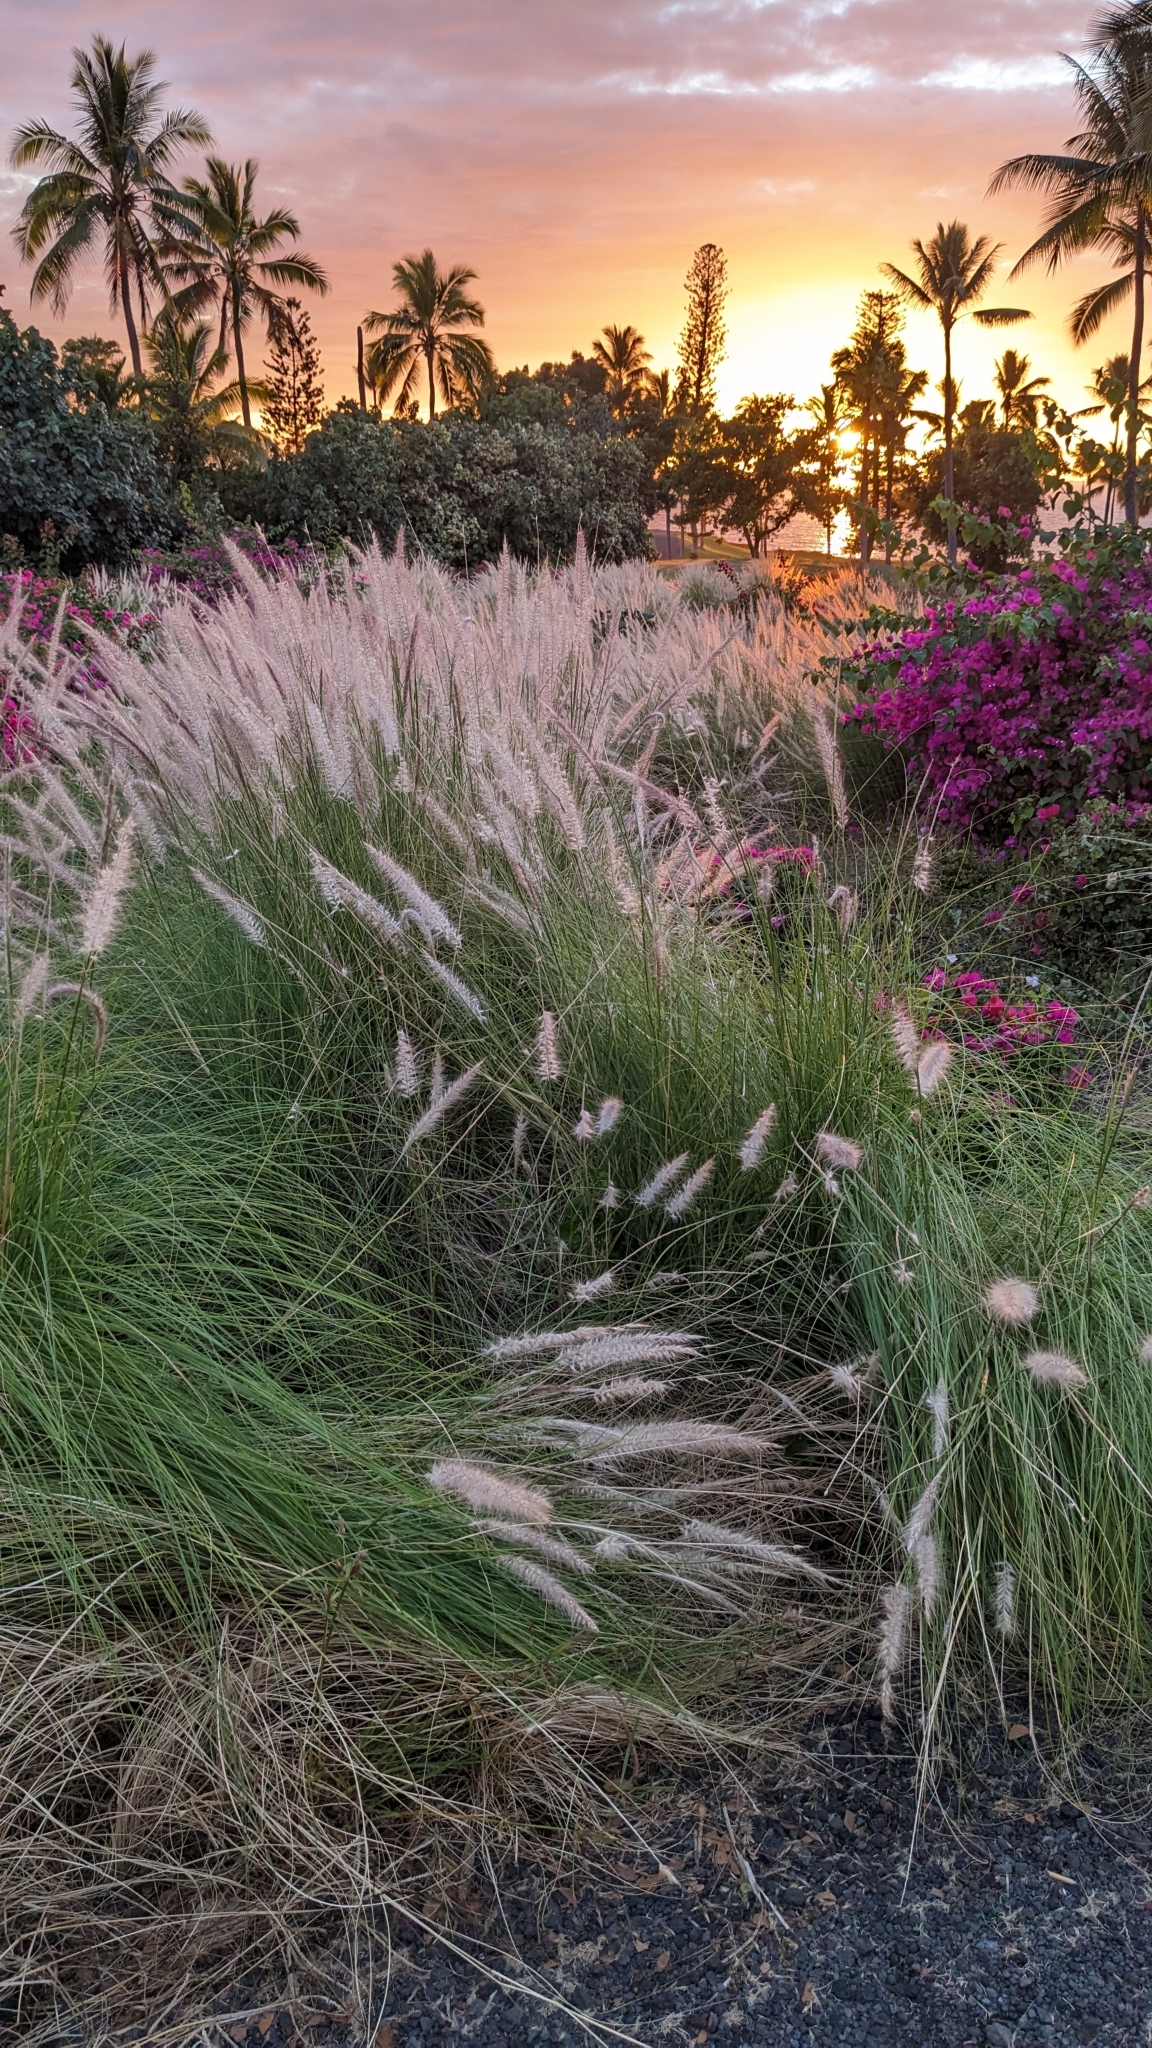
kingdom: Plantae
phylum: Tracheophyta
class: Liliopsida
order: Poales
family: Poaceae
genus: Cenchrus
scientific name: Cenchrus setaceus
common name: Crimson fountaingrass
